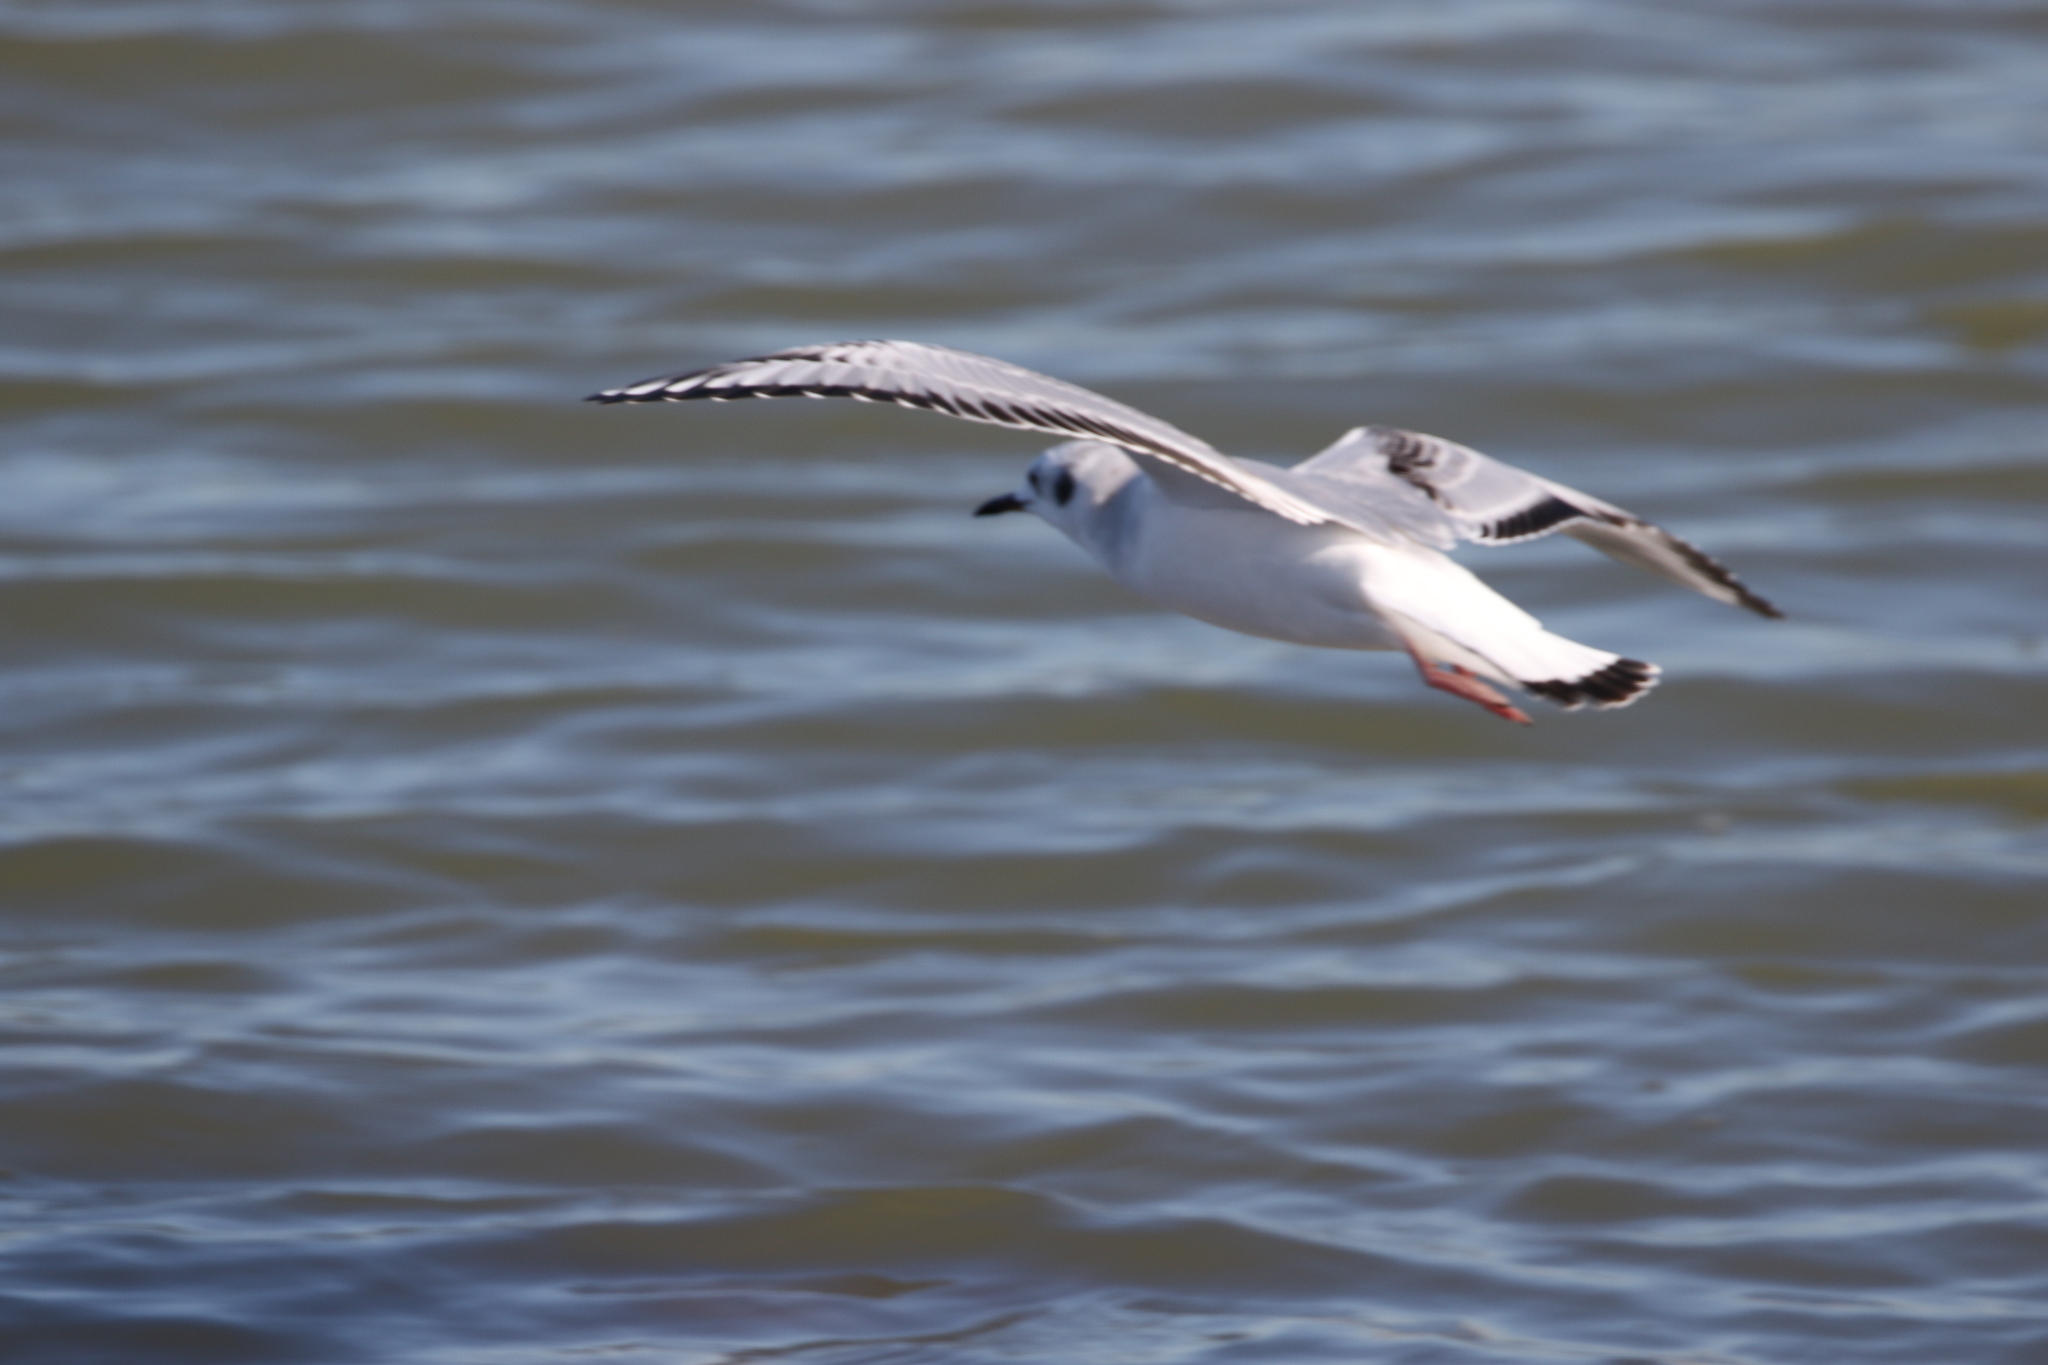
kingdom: Animalia
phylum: Chordata
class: Aves
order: Charadriiformes
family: Laridae
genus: Chroicocephalus
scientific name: Chroicocephalus philadelphia
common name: Bonaparte's gull
